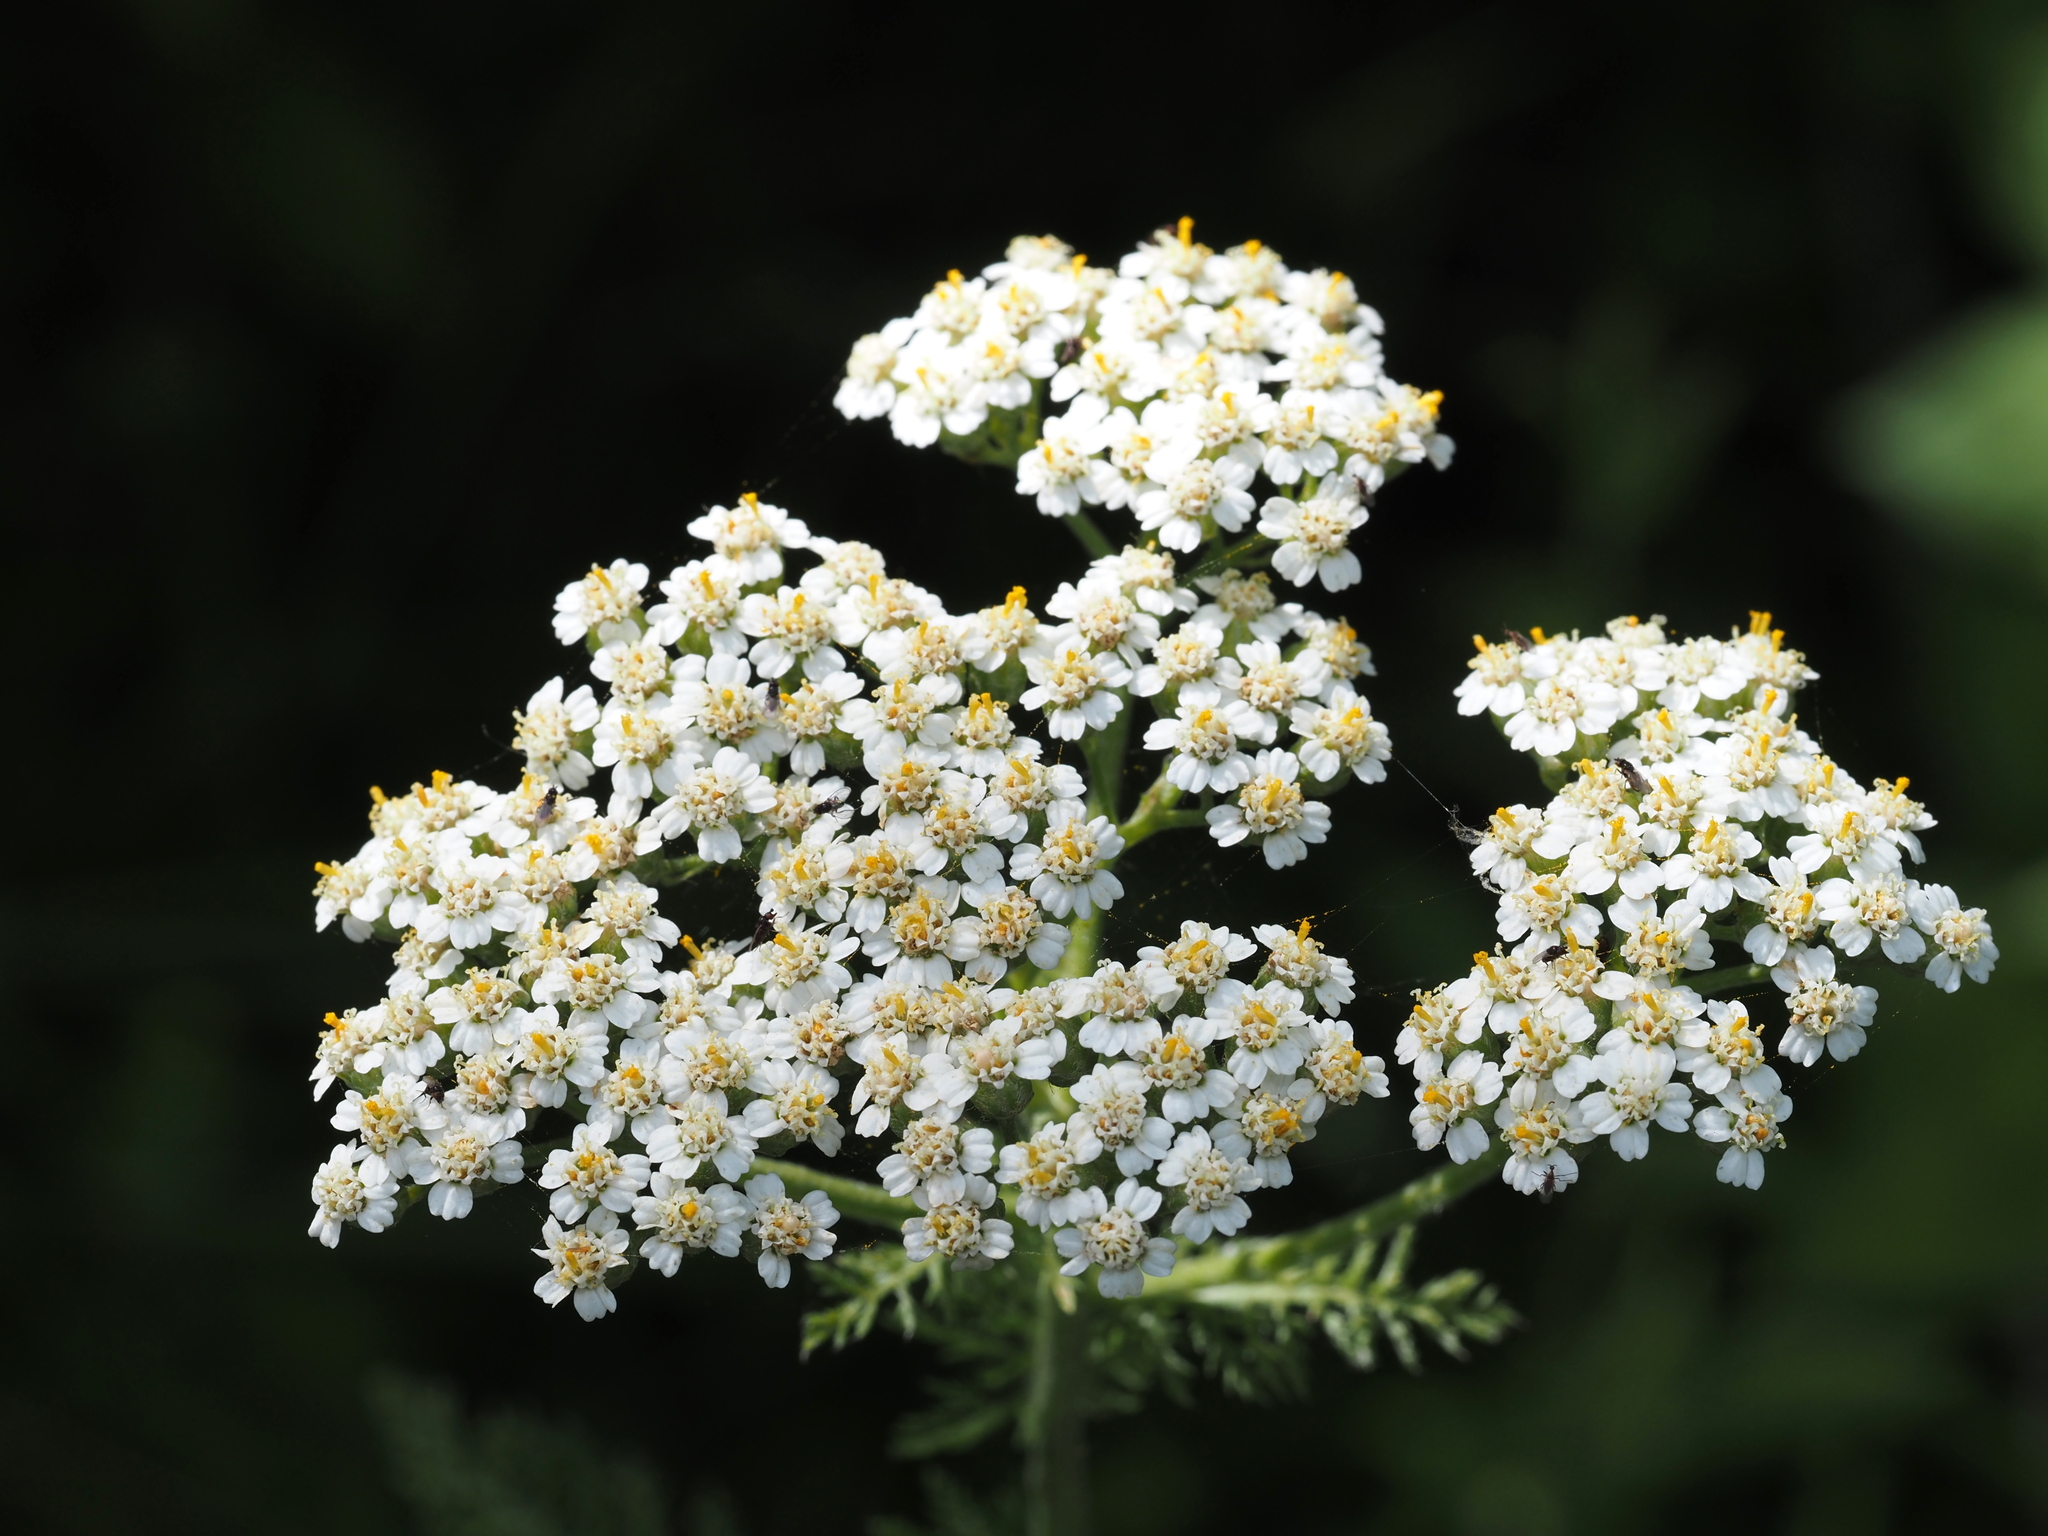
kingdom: Plantae
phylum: Tracheophyta
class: Magnoliopsida
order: Asterales
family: Asteraceae
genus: Achillea
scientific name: Achillea millefolium
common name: Yarrow
